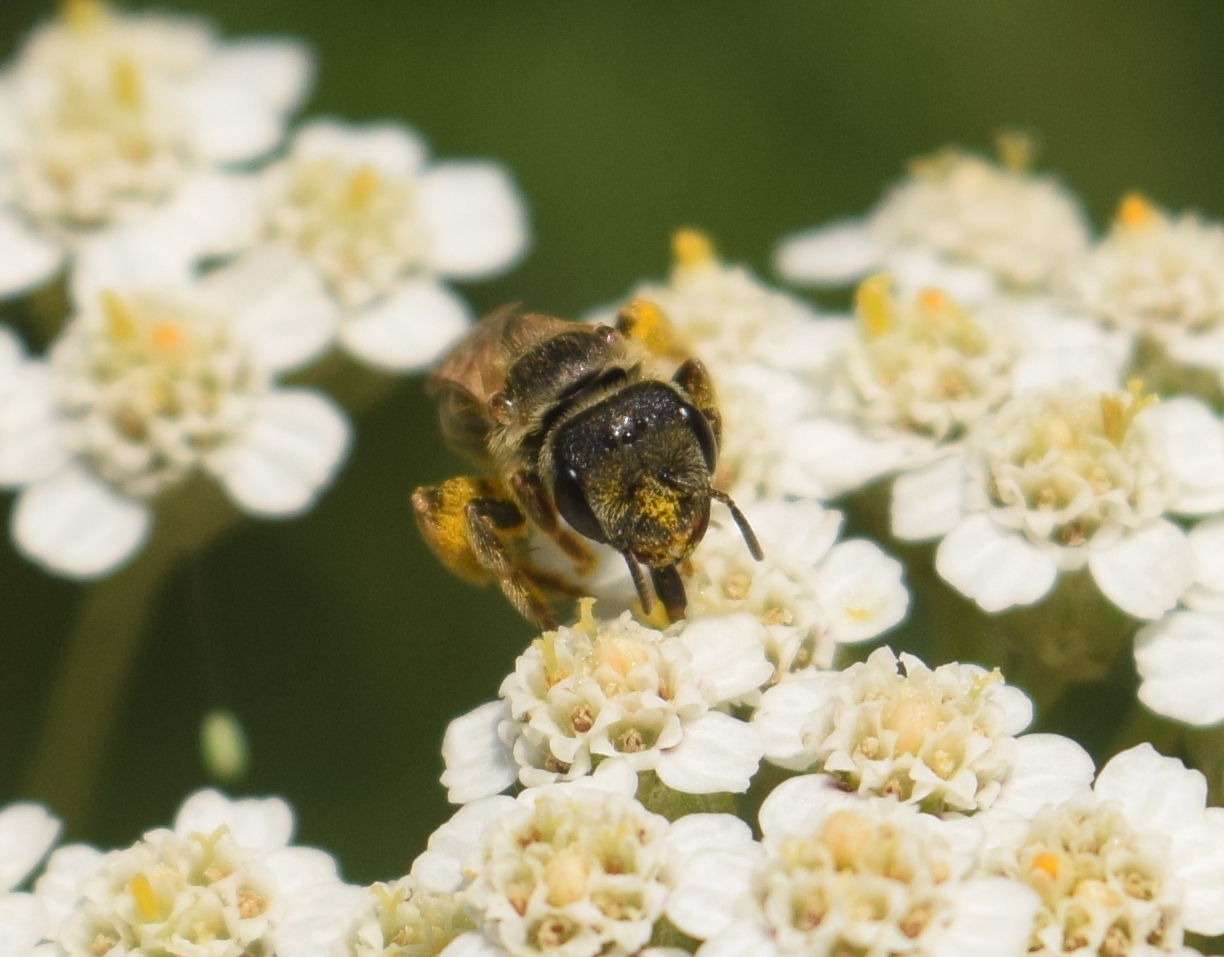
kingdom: Animalia
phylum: Arthropoda
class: Insecta
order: Hymenoptera
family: Halictidae
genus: Halictus
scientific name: Halictus ligatus
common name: Ligated furrow bee
